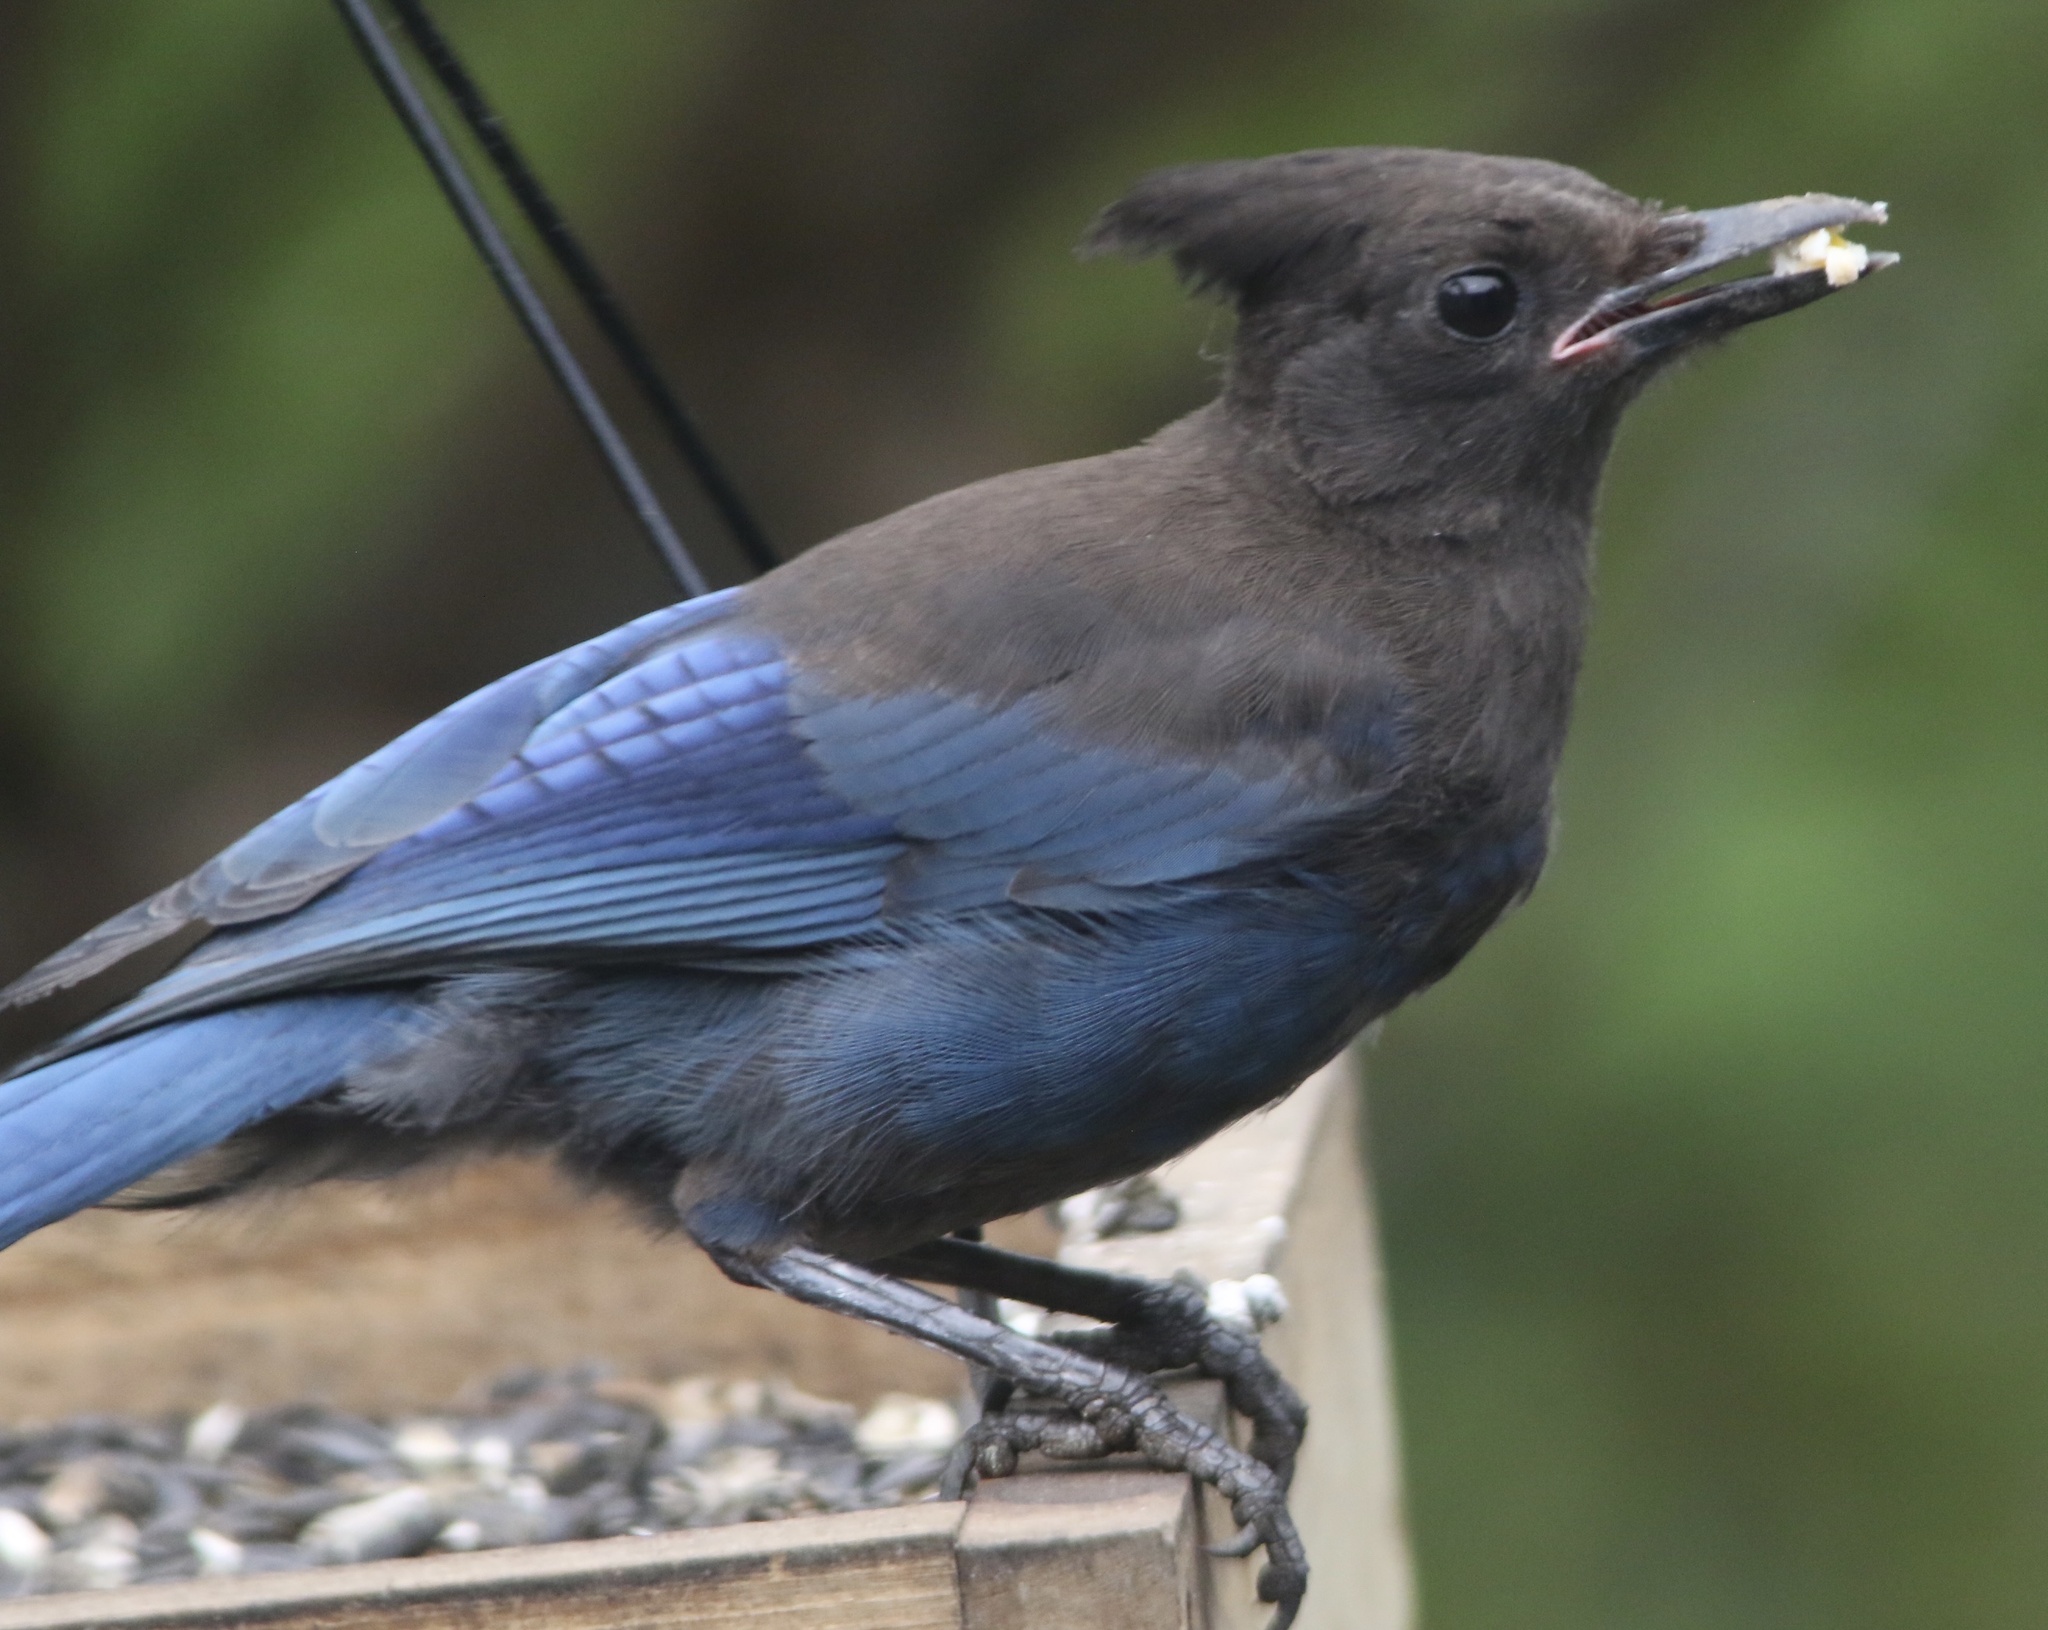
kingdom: Animalia
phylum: Chordata
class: Aves
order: Passeriformes
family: Corvidae
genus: Cyanocitta
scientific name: Cyanocitta stelleri
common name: Steller's jay
